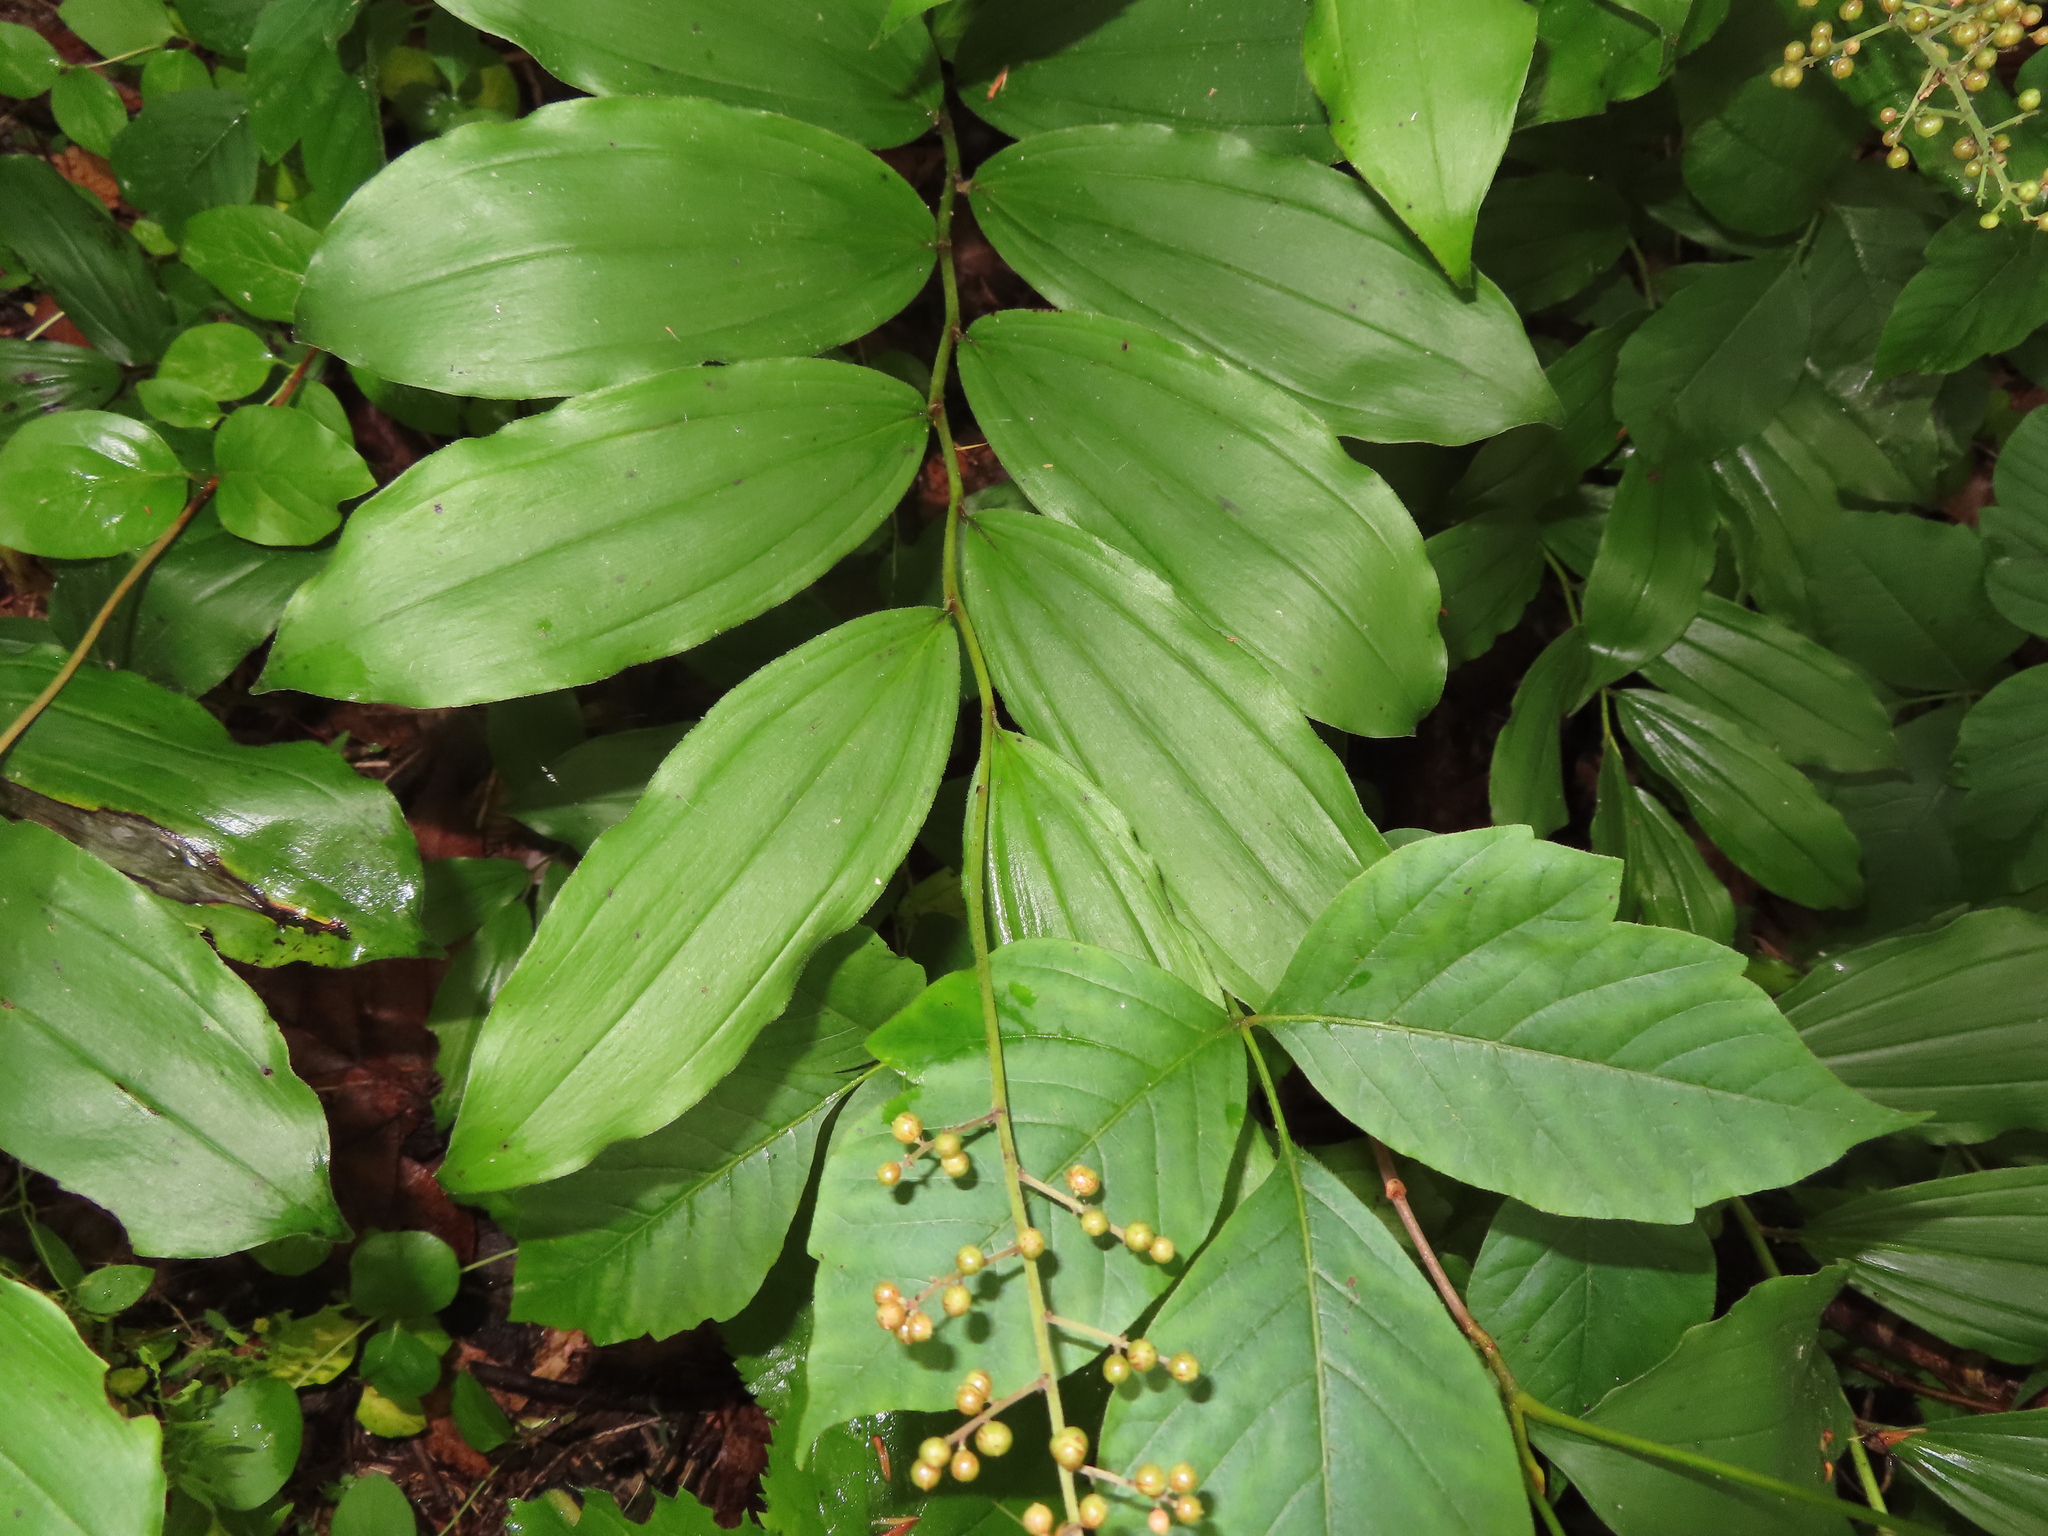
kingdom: Plantae
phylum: Tracheophyta
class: Liliopsida
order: Asparagales
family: Asparagaceae
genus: Maianthemum
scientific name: Maianthemum racemosum
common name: False spikenard
